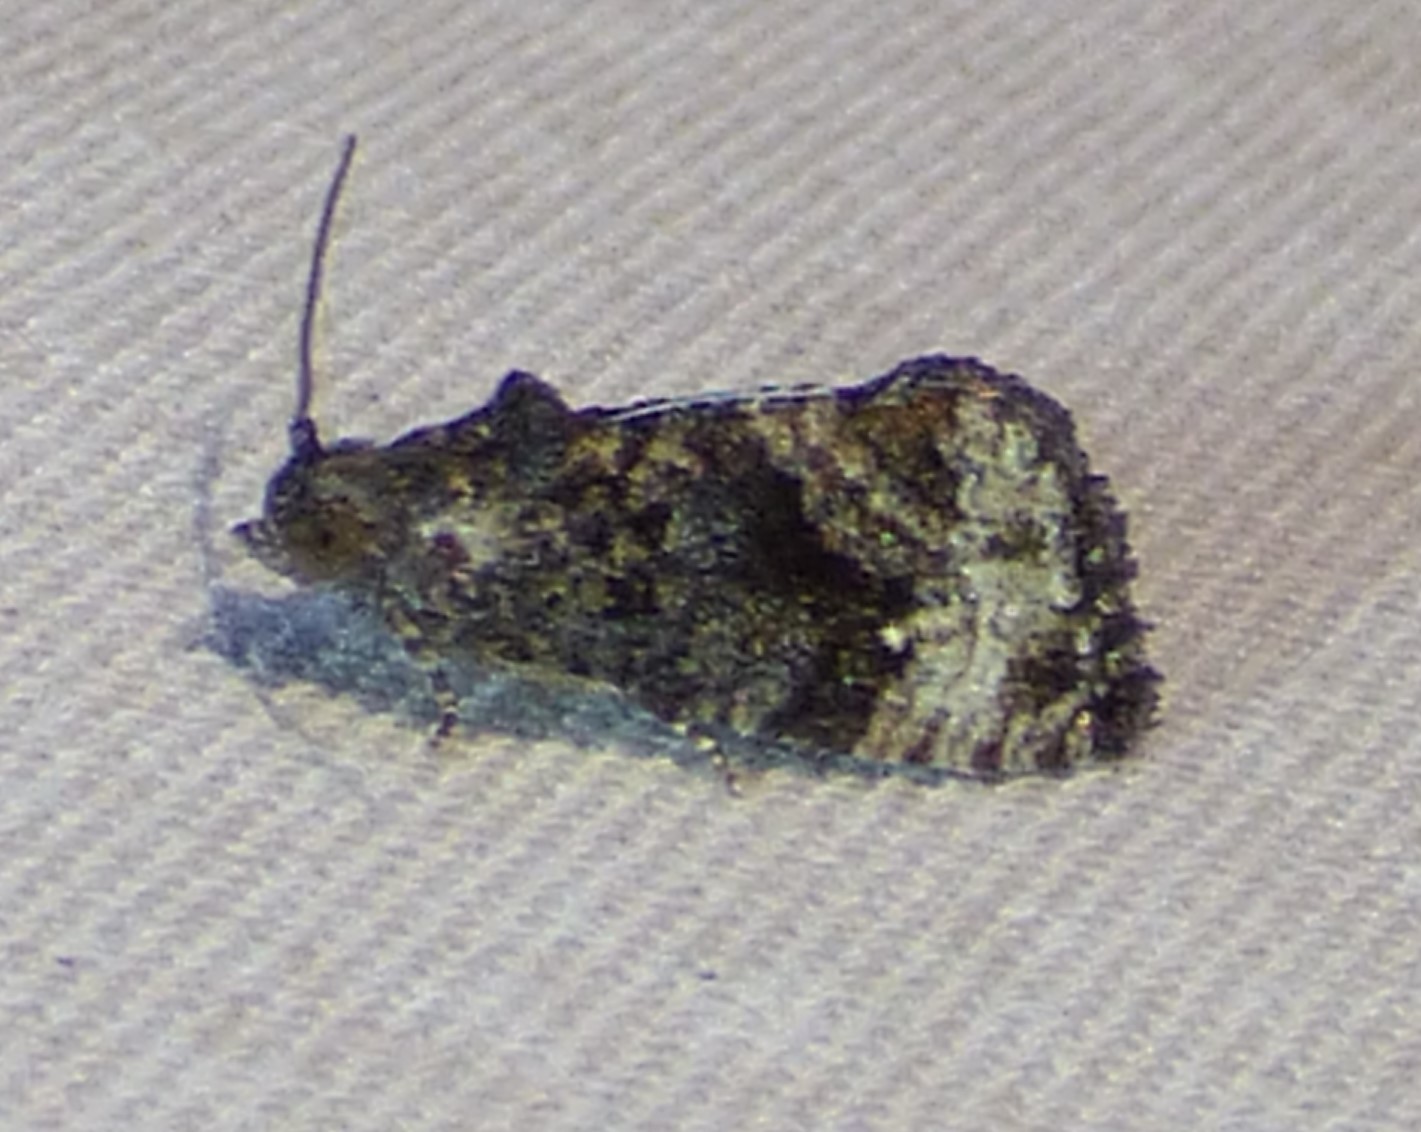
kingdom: Animalia
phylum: Arthropoda
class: Insecta
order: Lepidoptera
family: Tortricidae
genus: Gymnandrosoma
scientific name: Gymnandrosoma punctidiscanum
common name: Dotted ecdytolopha moth
